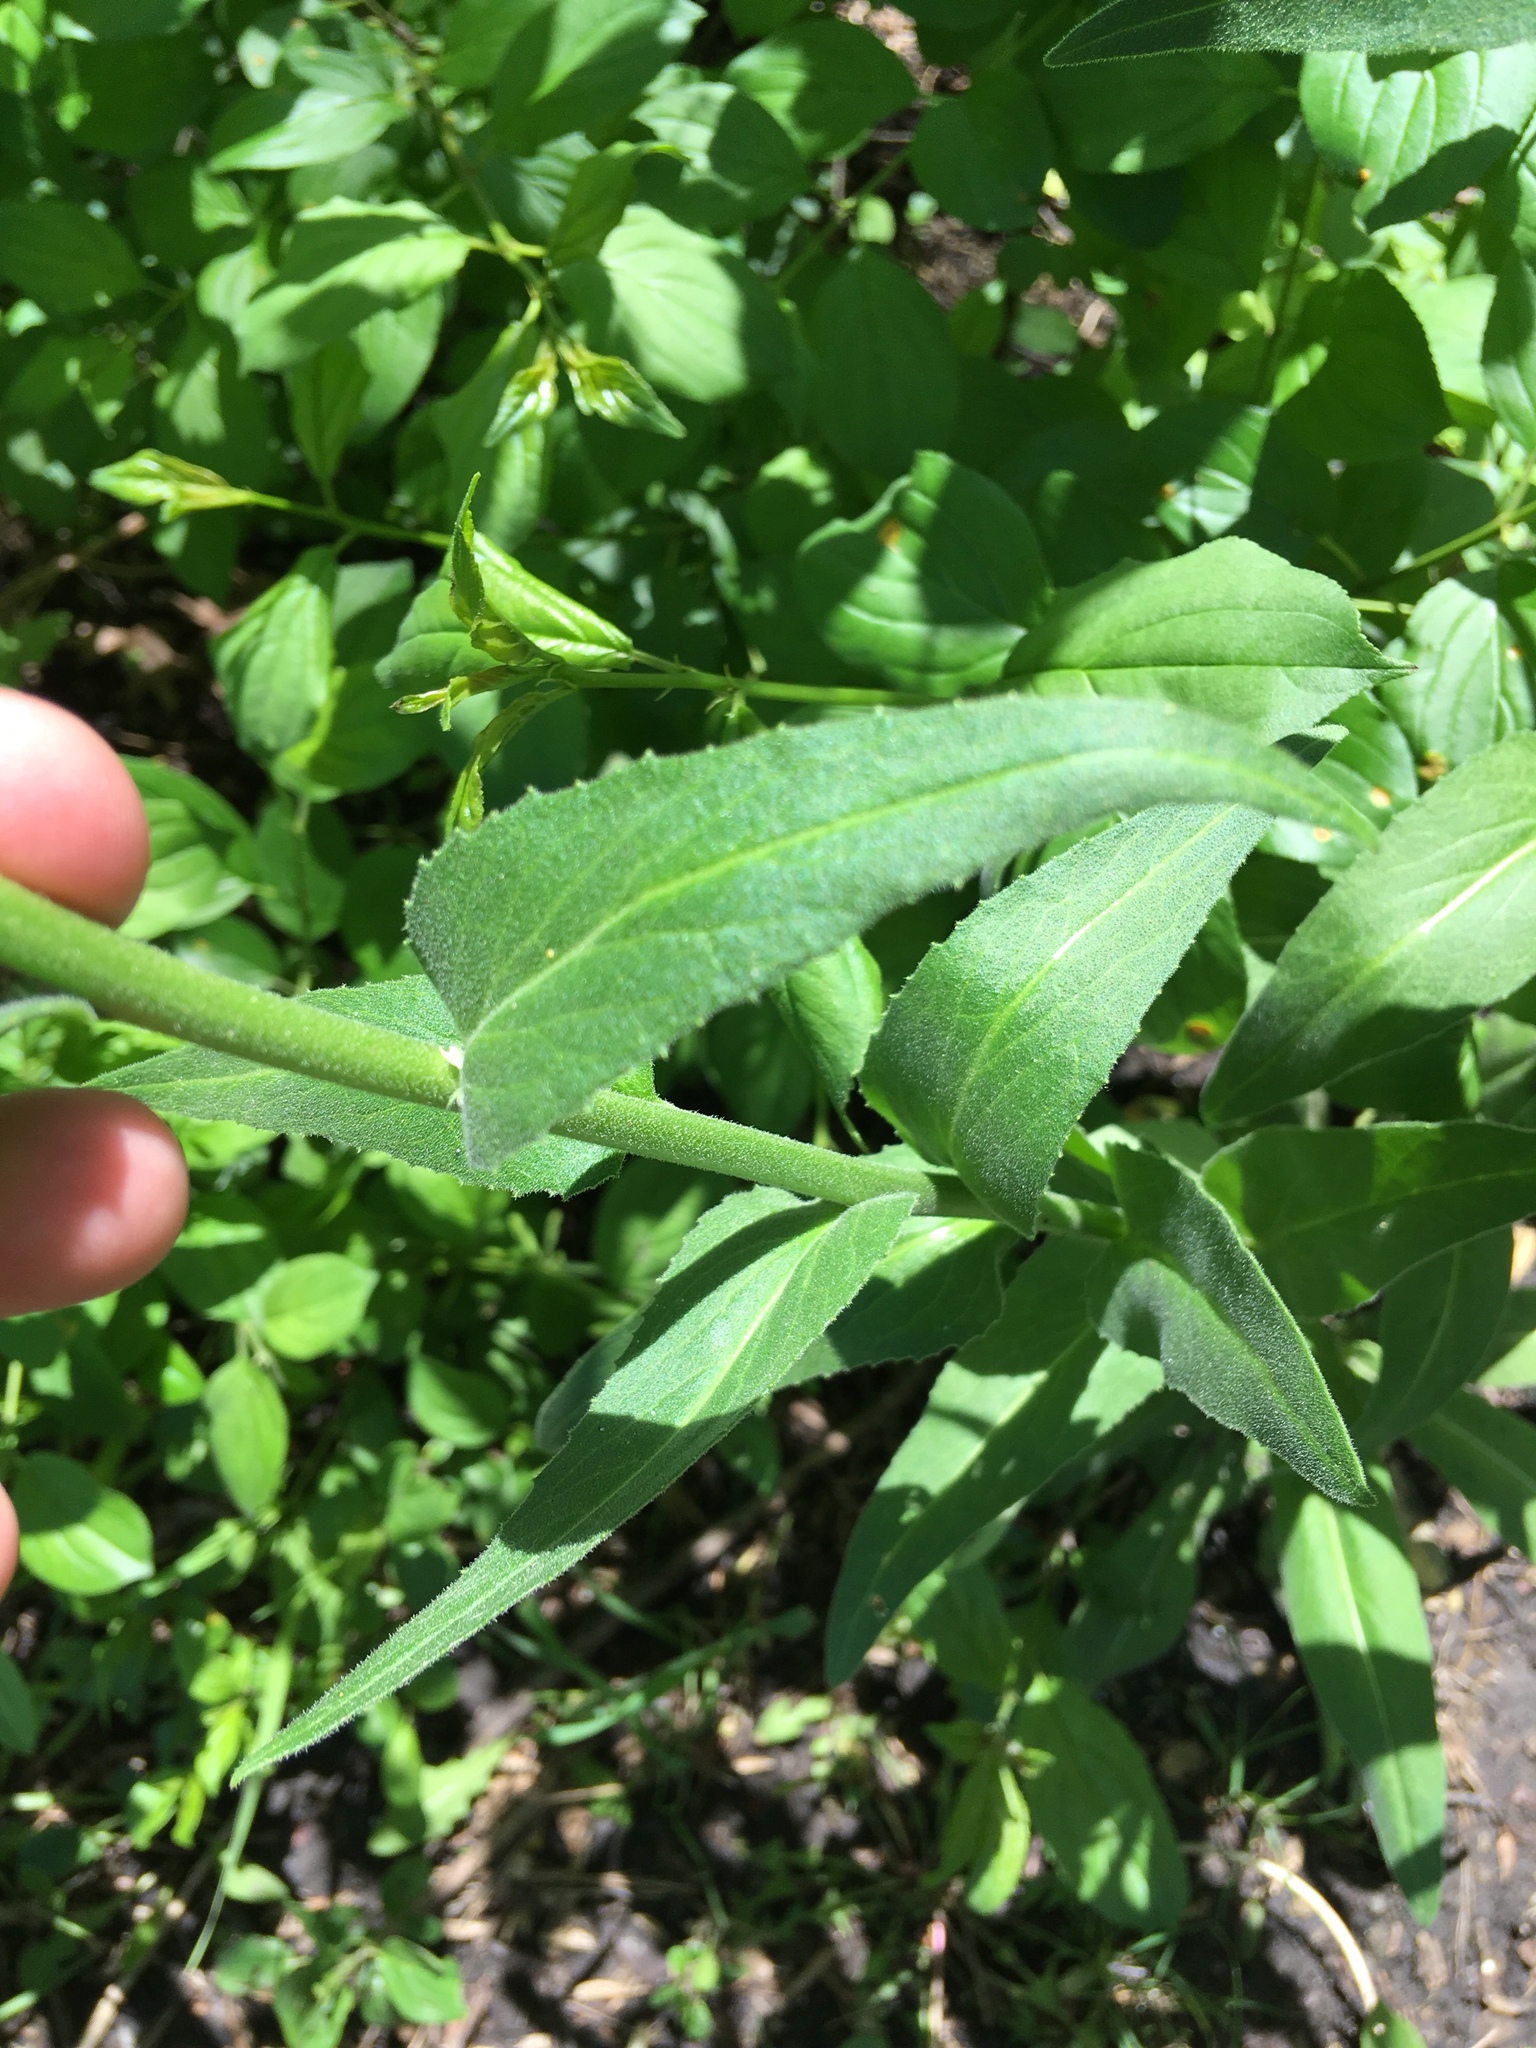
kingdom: Plantae
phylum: Tracheophyta
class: Magnoliopsida
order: Brassicales
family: Brassicaceae
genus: Hesperis
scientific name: Hesperis matronalis
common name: Dame's-violet
